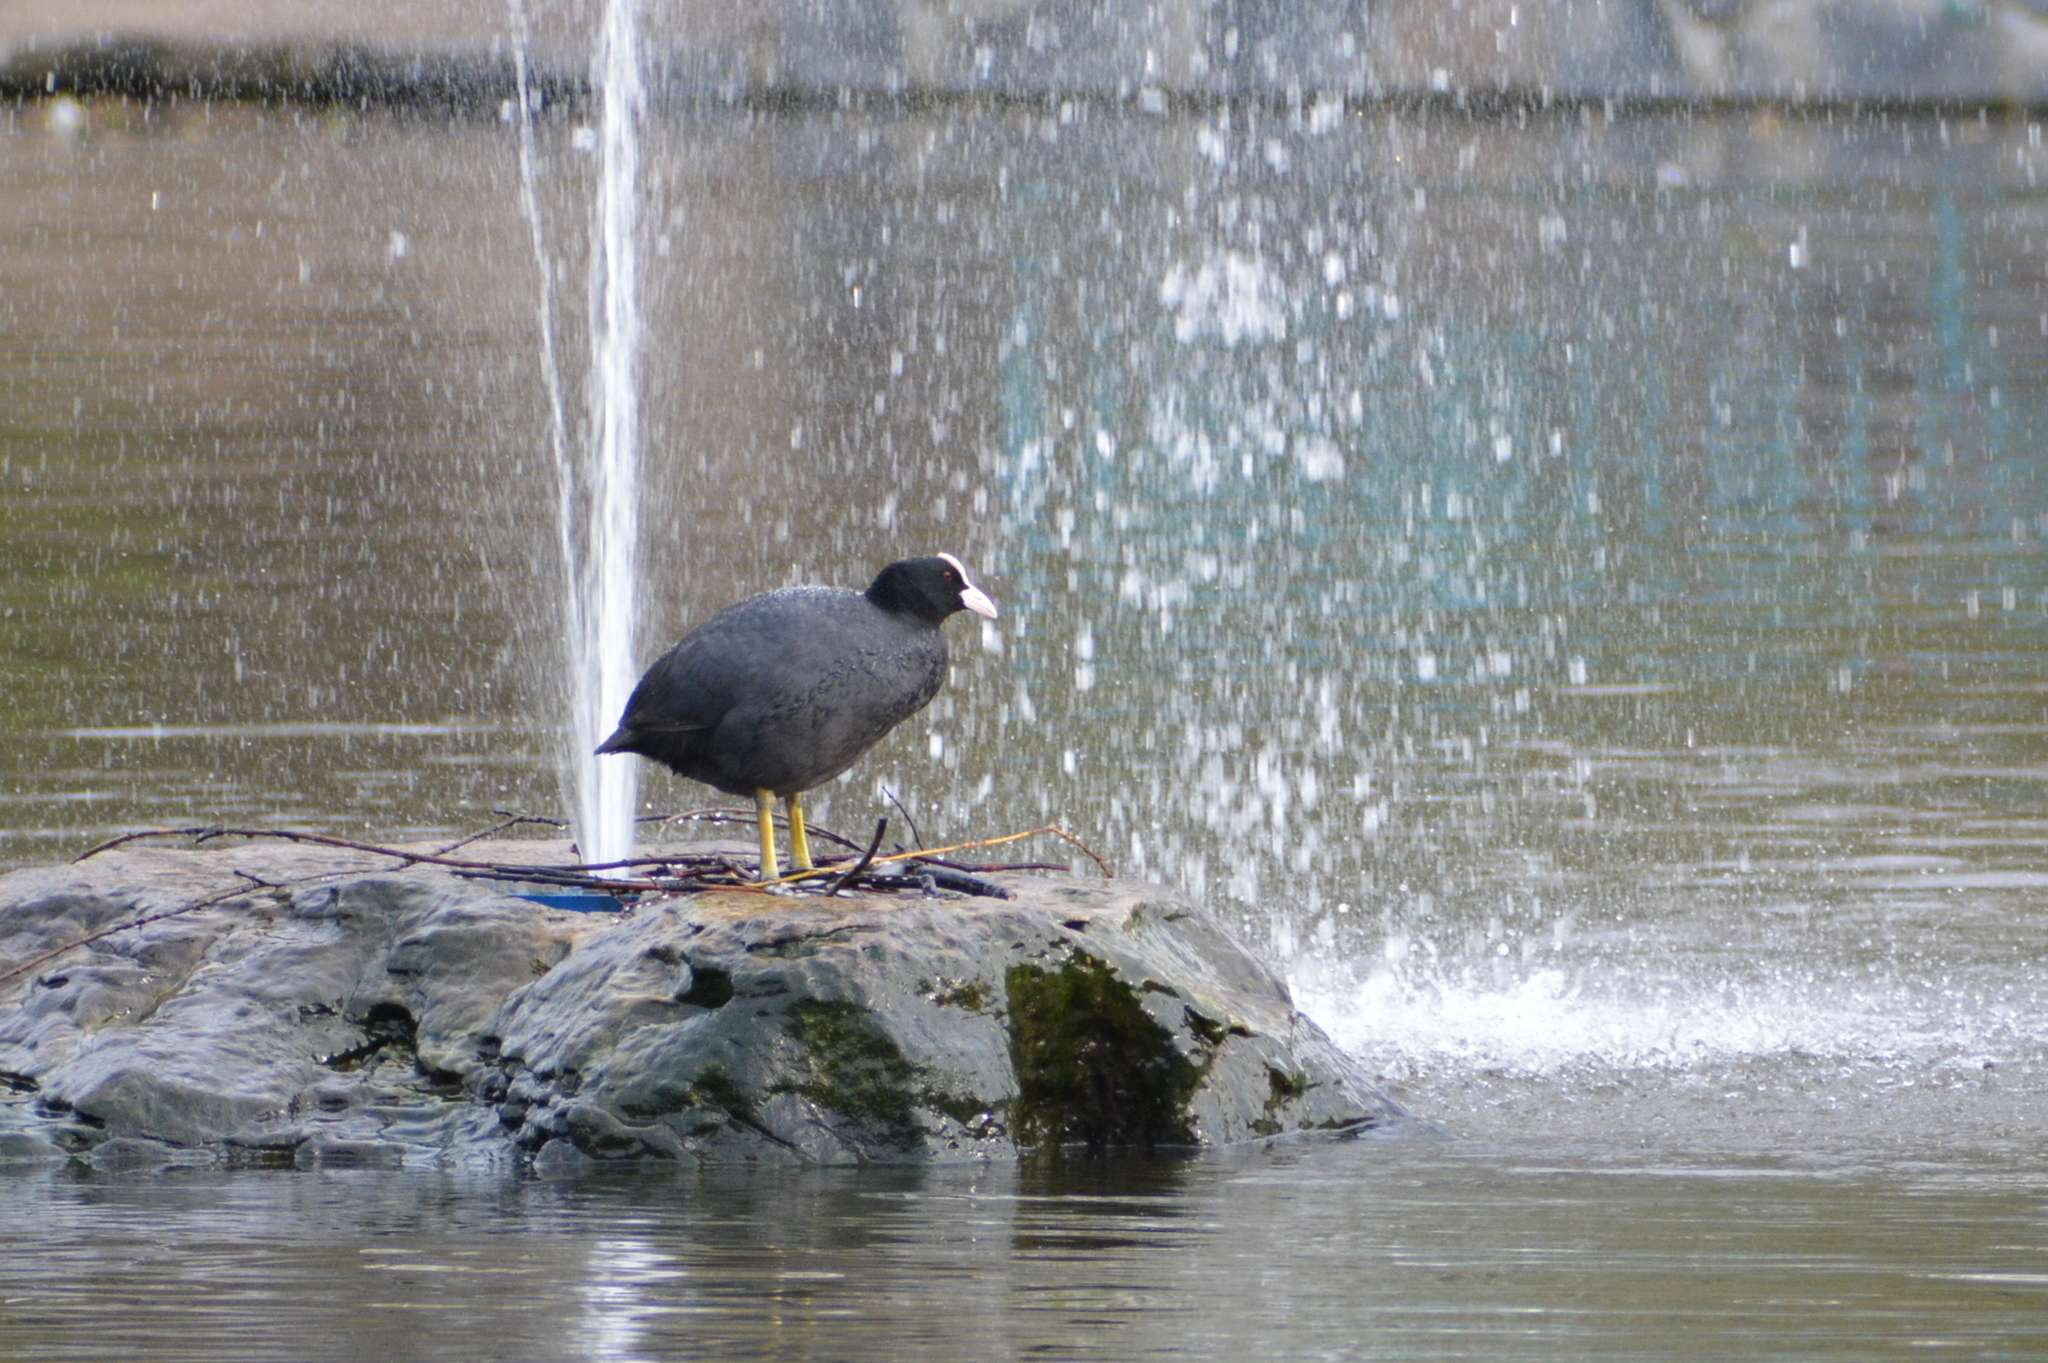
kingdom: Animalia
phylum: Chordata
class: Aves
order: Gruiformes
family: Rallidae
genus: Fulica
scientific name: Fulica atra
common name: Eurasian coot
